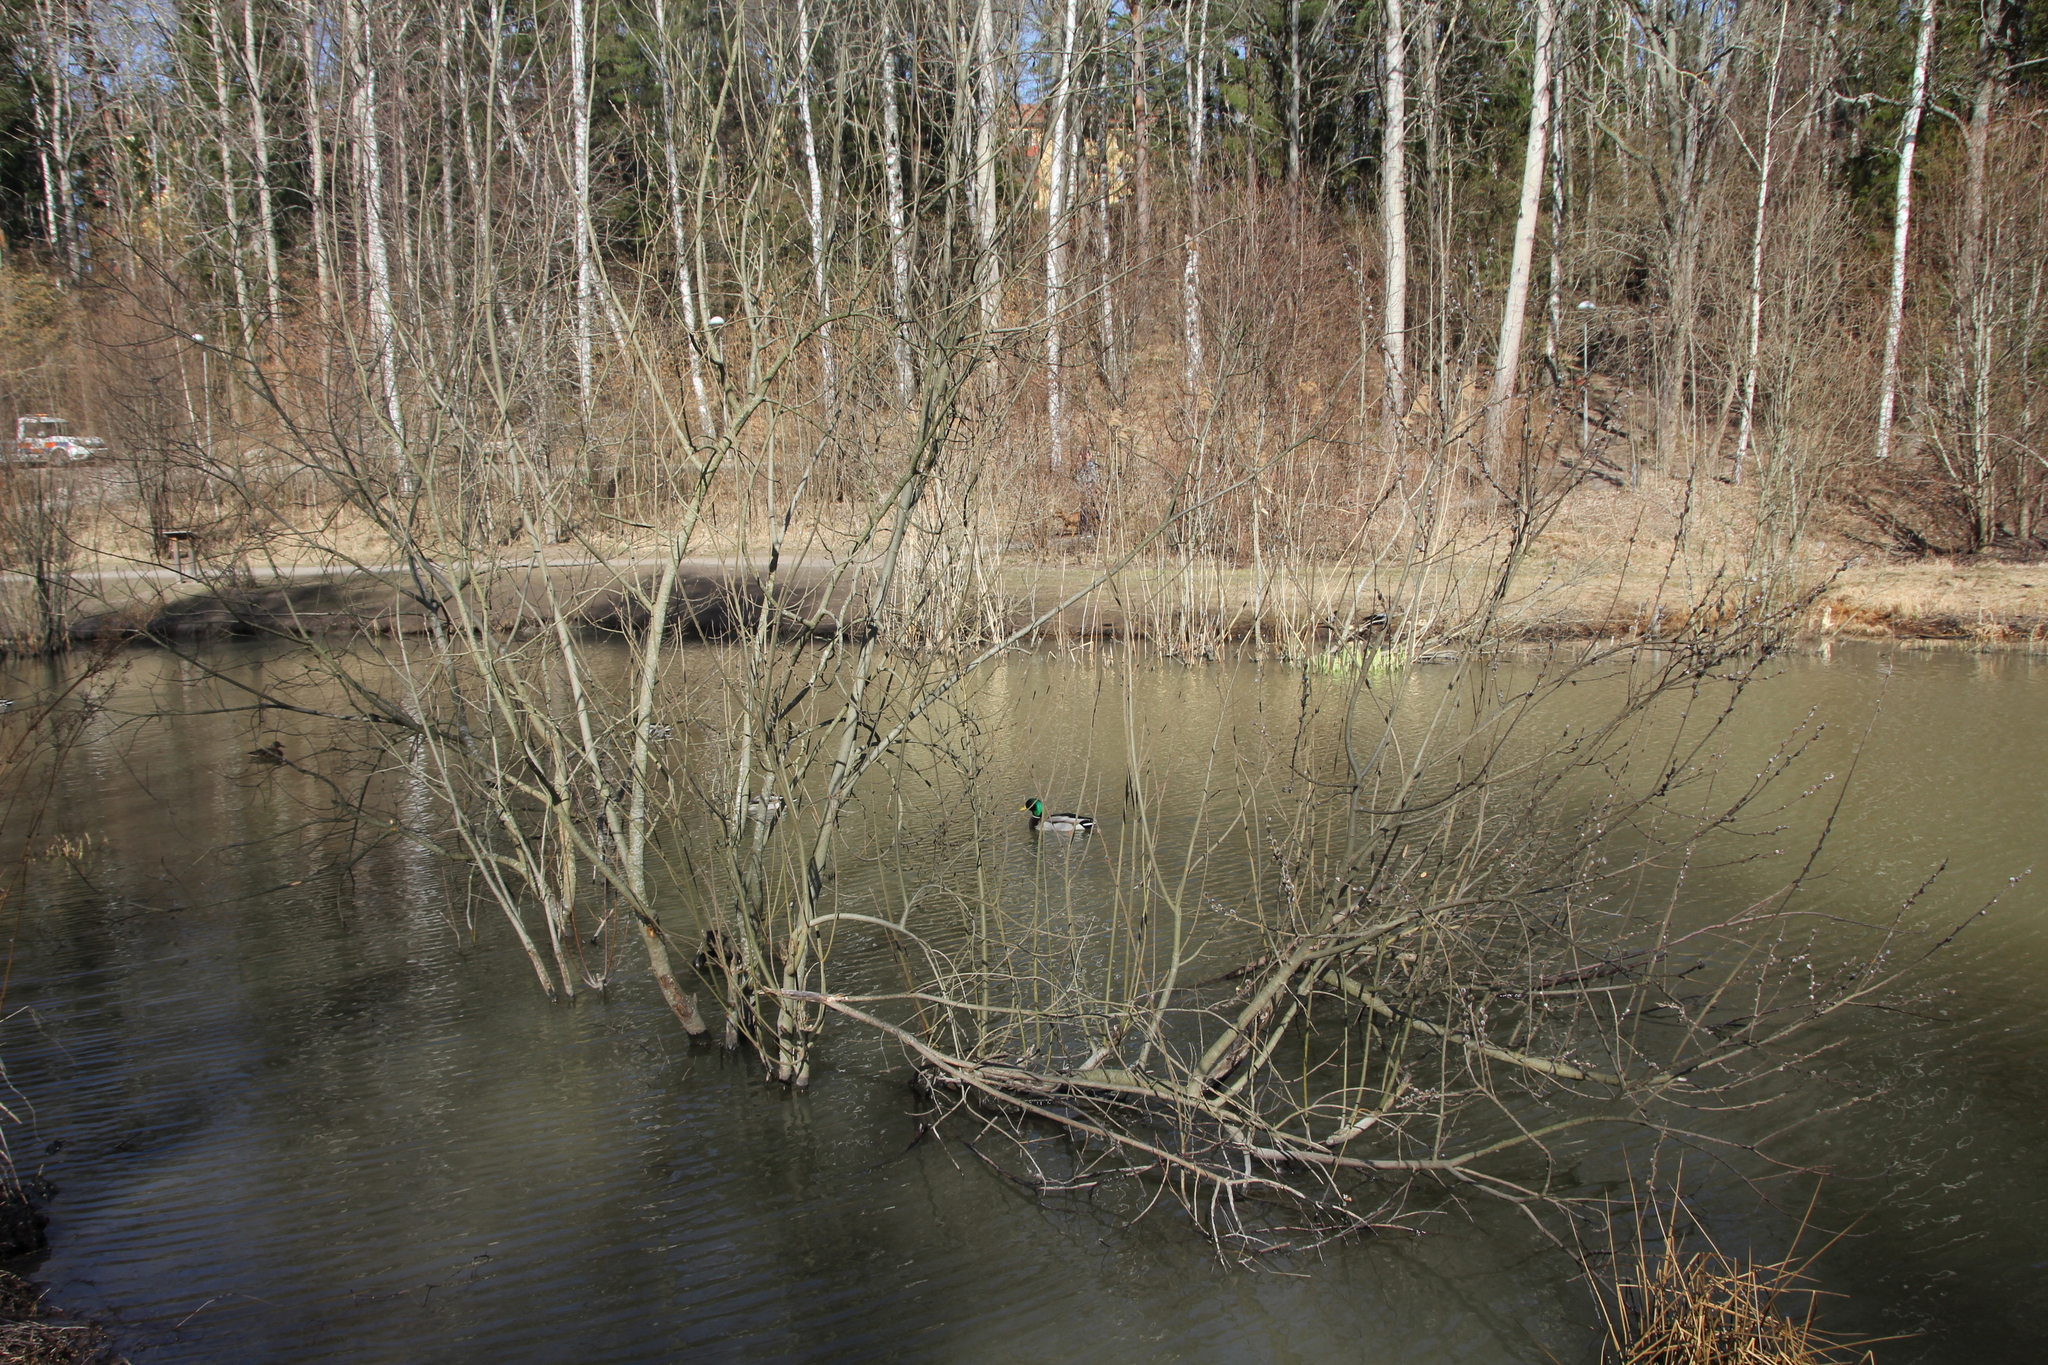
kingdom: Plantae
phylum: Tracheophyta
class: Magnoliopsida
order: Malpighiales
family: Salicaceae
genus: Salix
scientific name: Salix caprea
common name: Goat willow
